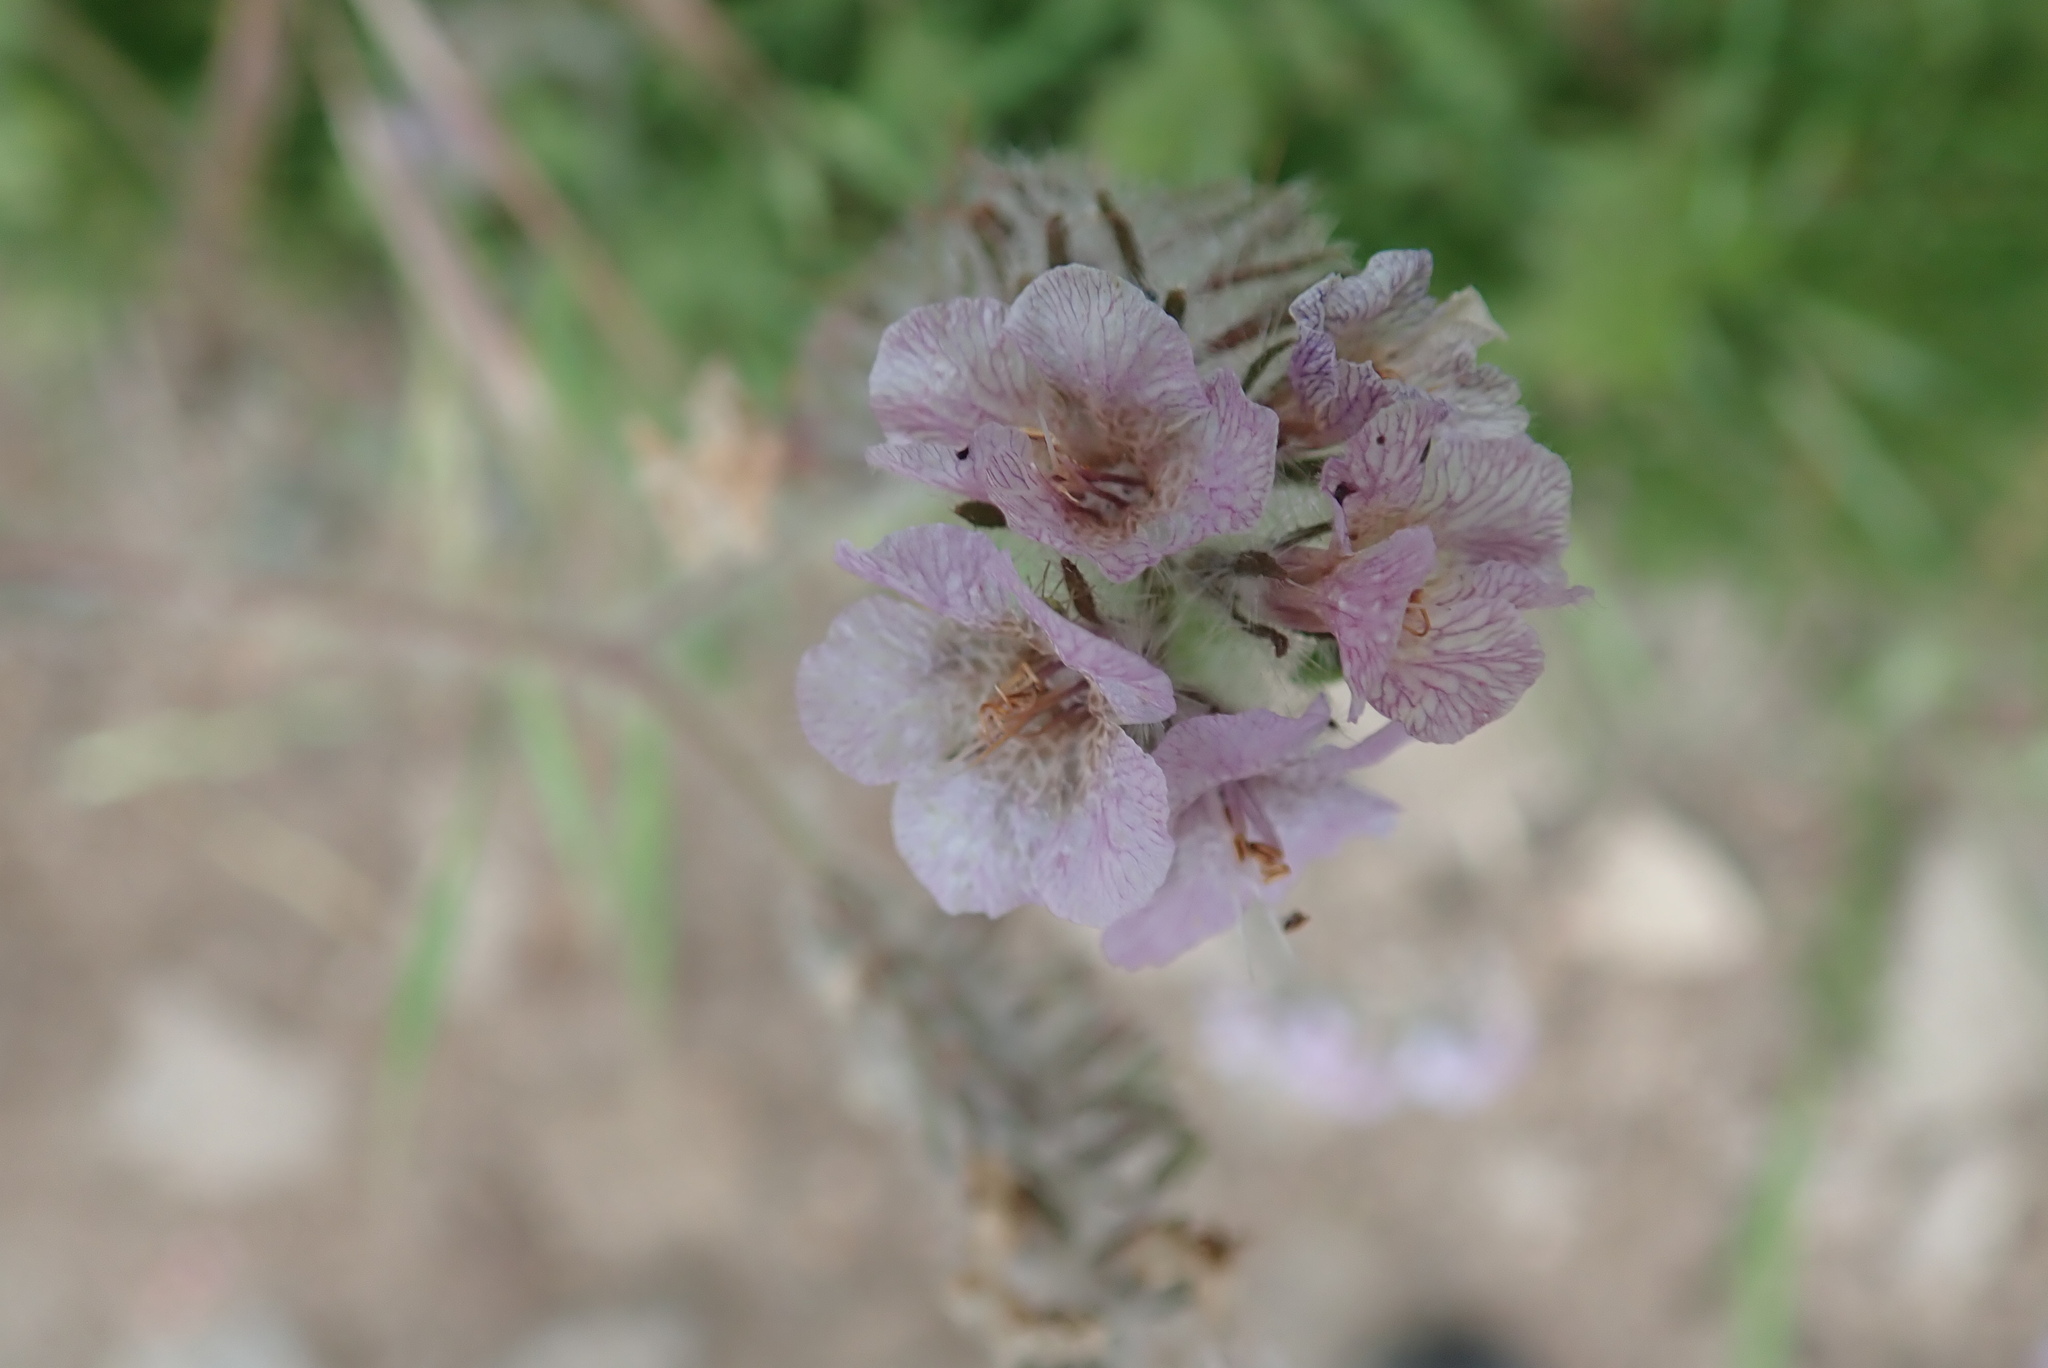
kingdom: Plantae
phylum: Tracheophyta
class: Magnoliopsida
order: Boraginales
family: Hydrophyllaceae
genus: Phacelia
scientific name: Phacelia cicutaria
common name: Caterpillar phacelia
